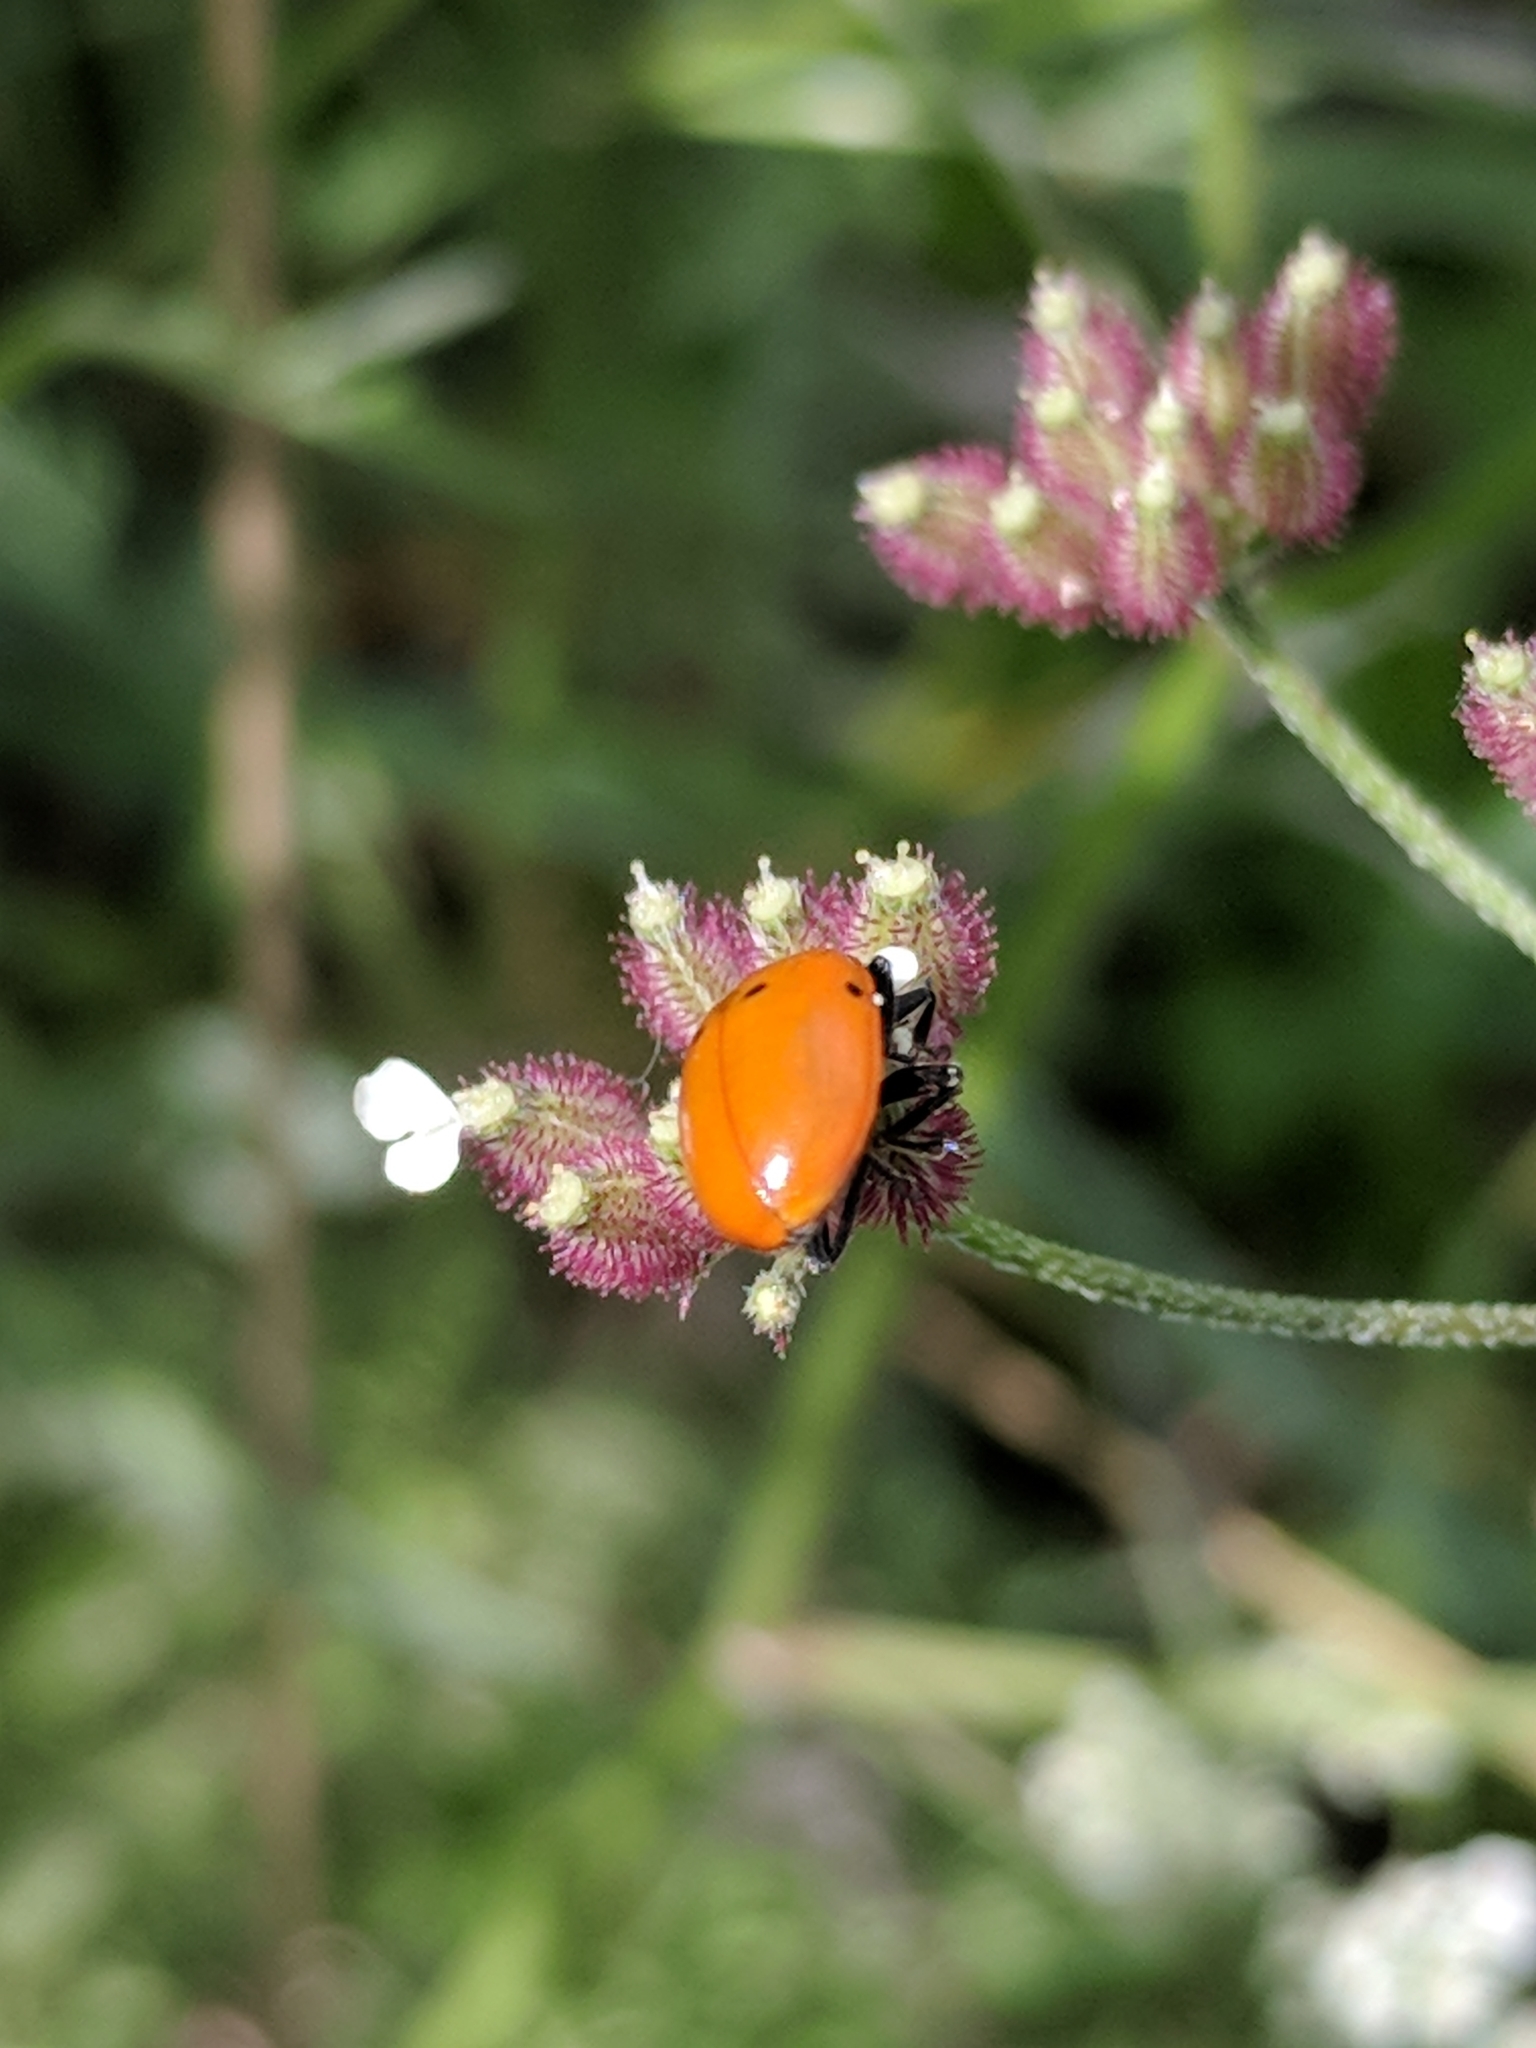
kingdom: Animalia
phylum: Arthropoda
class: Insecta
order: Coleoptera
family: Coccinellidae
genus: Hippodamia
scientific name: Hippodamia convergens
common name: Convergent lady beetle
